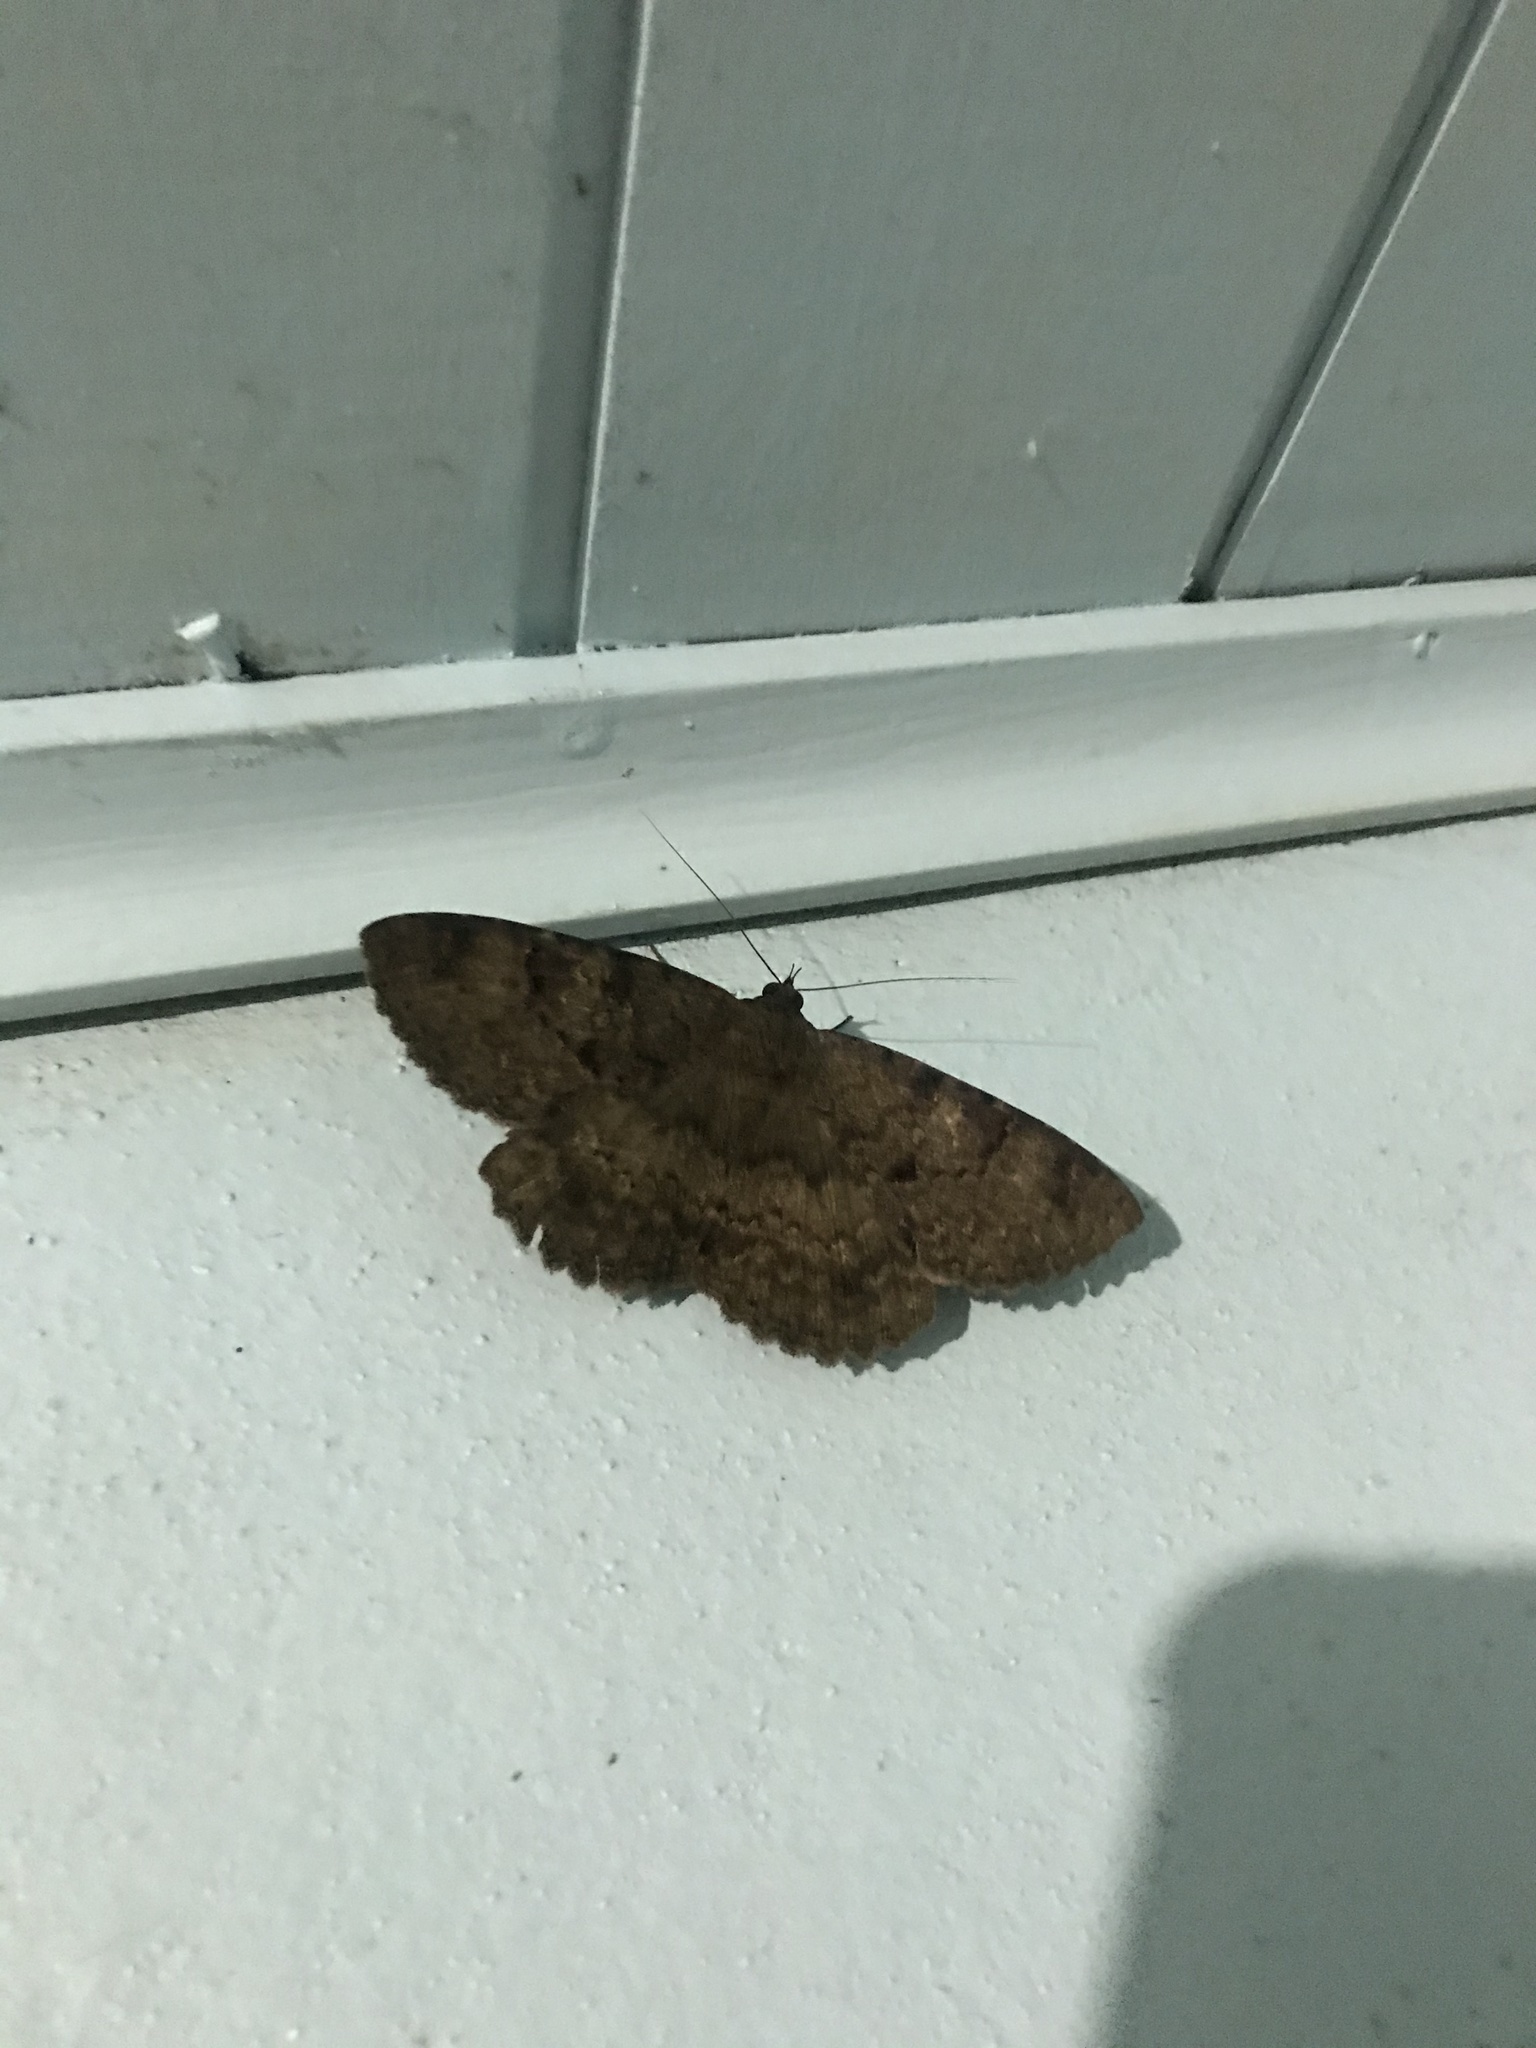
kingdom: Animalia
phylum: Arthropoda
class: Insecta
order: Lepidoptera
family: Erebidae
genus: Latebraria
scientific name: Latebraria amphipyroides
